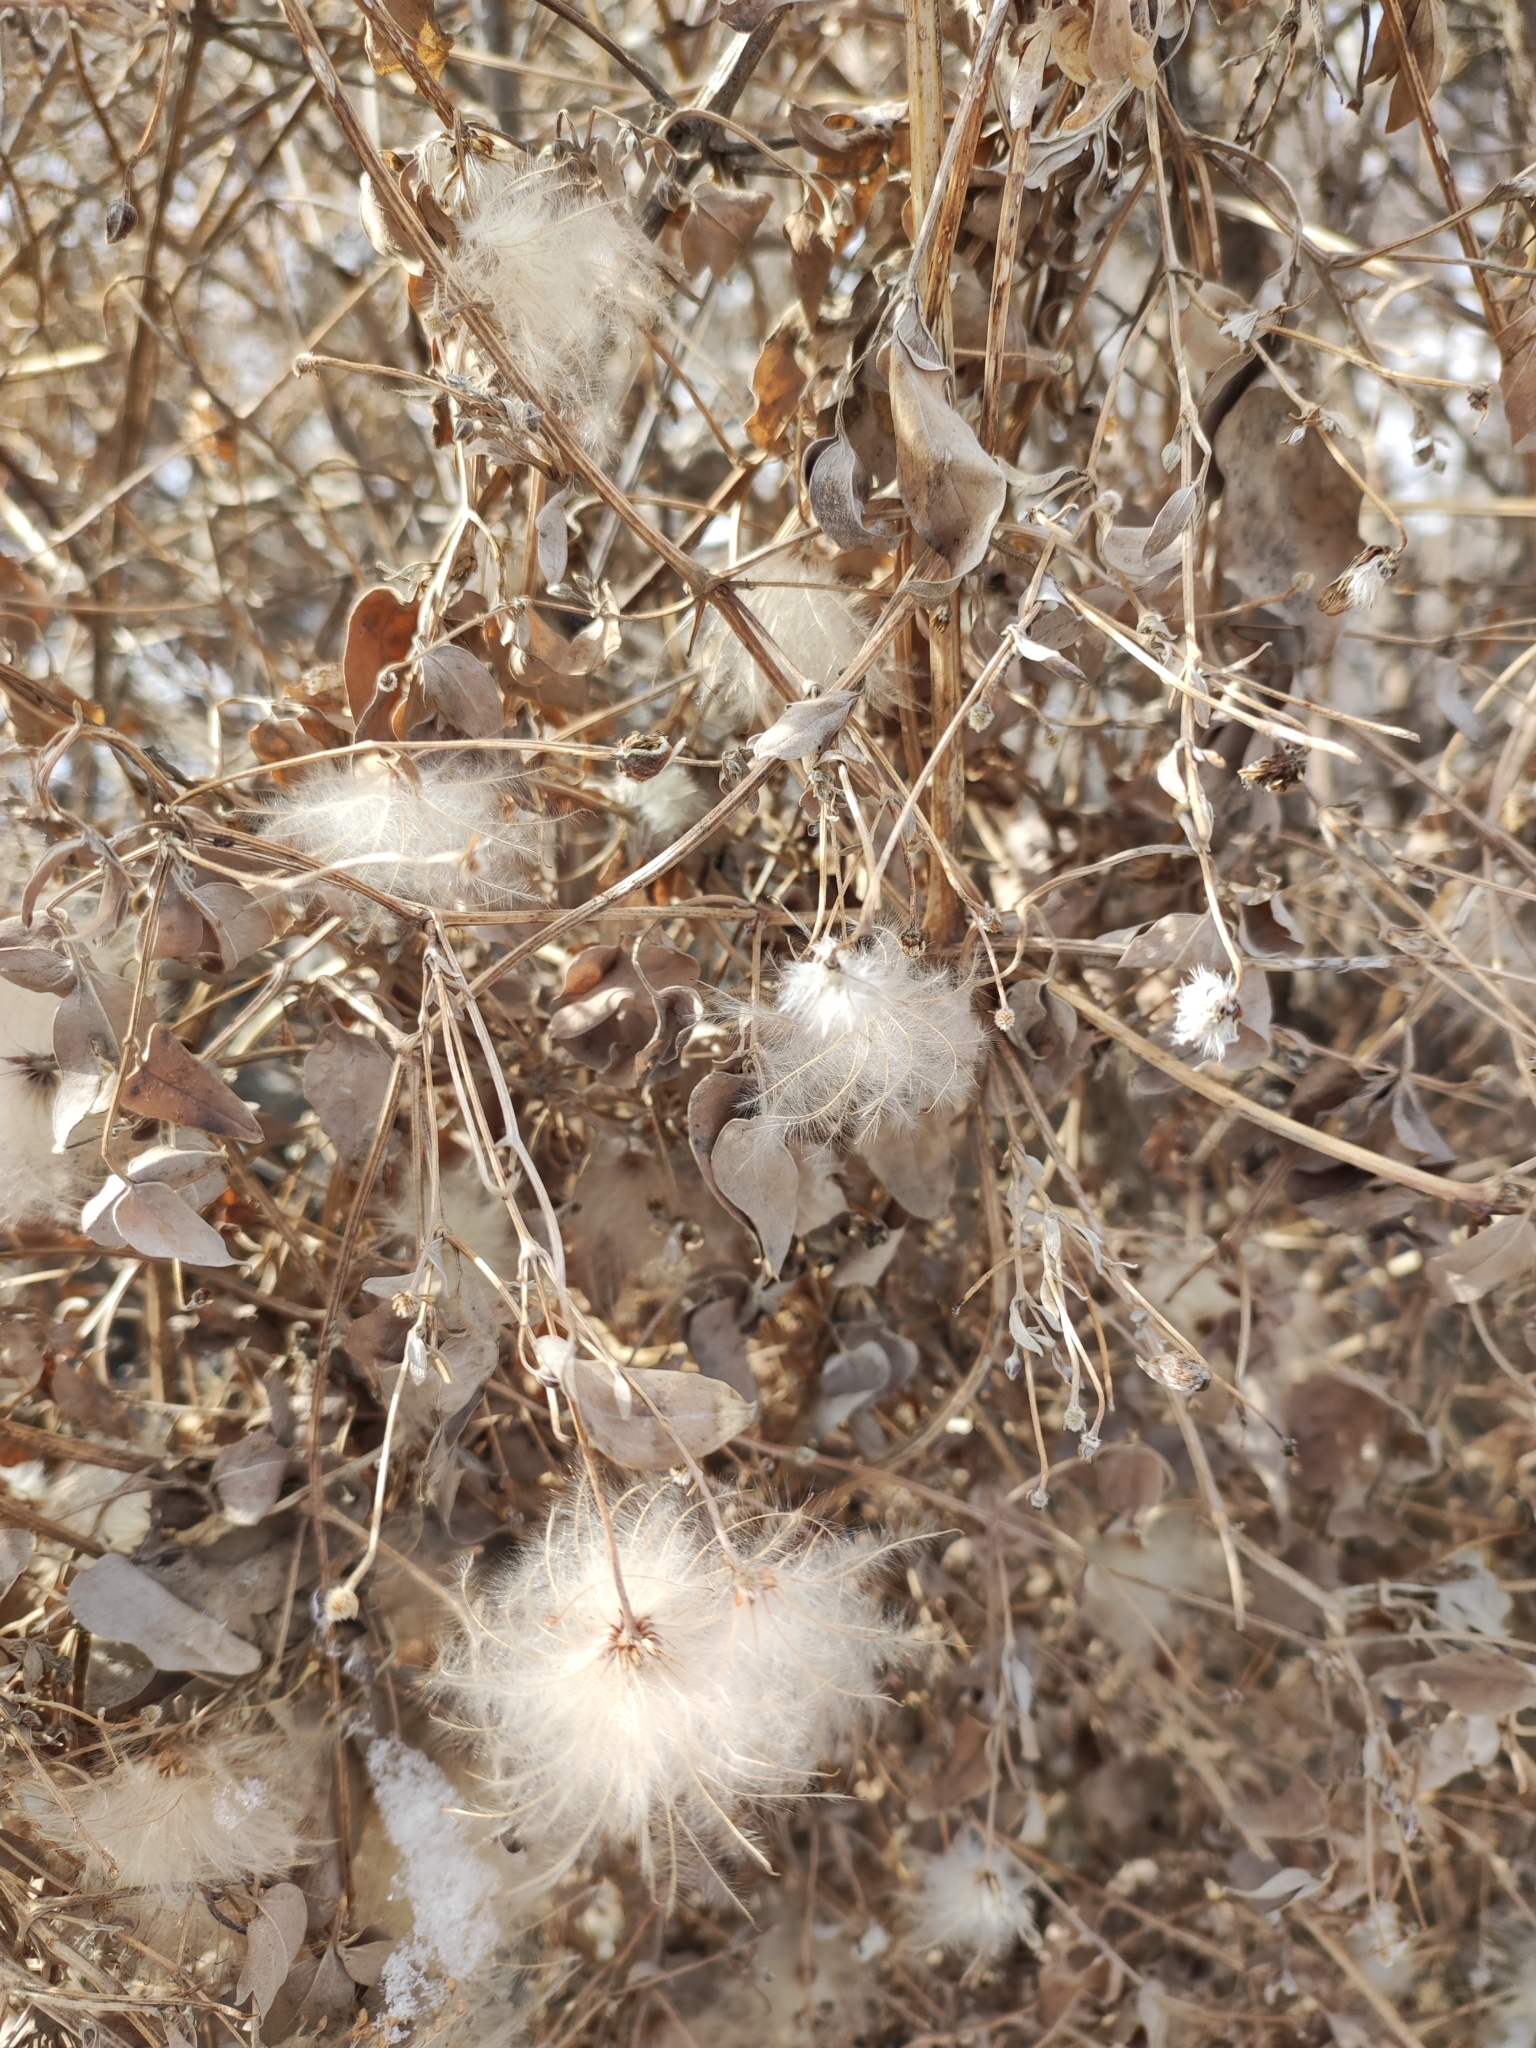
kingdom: Plantae
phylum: Tracheophyta
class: Magnoliopsida
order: Ranunculales
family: Ranunculaceae
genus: Clematis
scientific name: Clematis orientalis
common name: Oriental virgin's-bower
